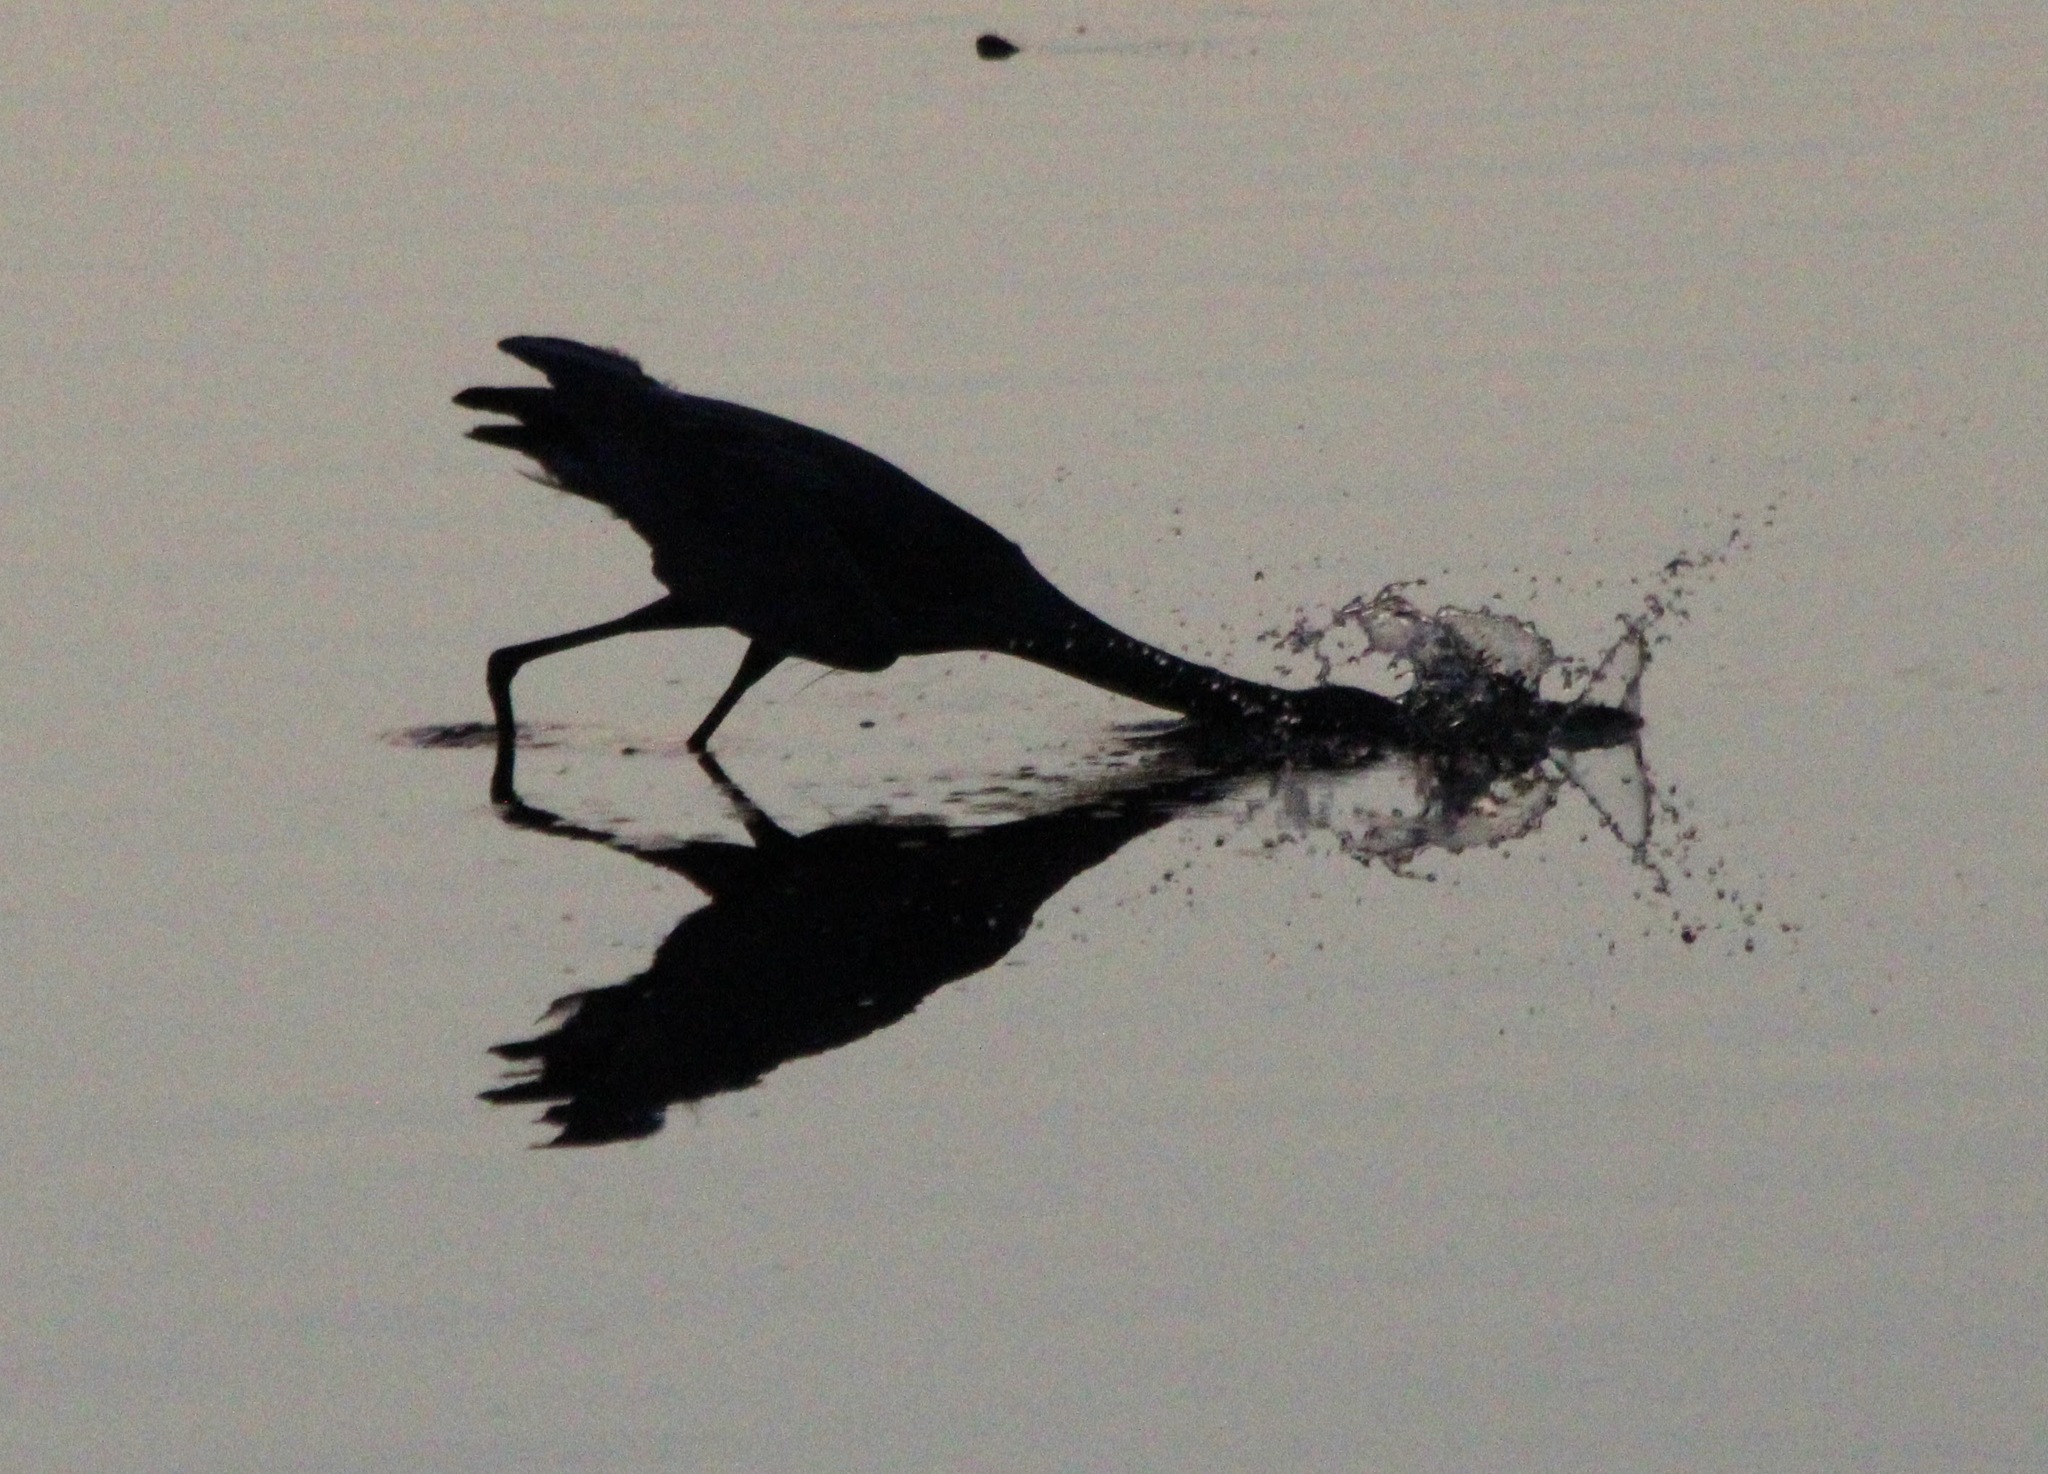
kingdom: Animalia
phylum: Chordata
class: Aves
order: Pelecaniformes
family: Ardeidae
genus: Ardea
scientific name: Ardea herodias
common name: Great blue heron
